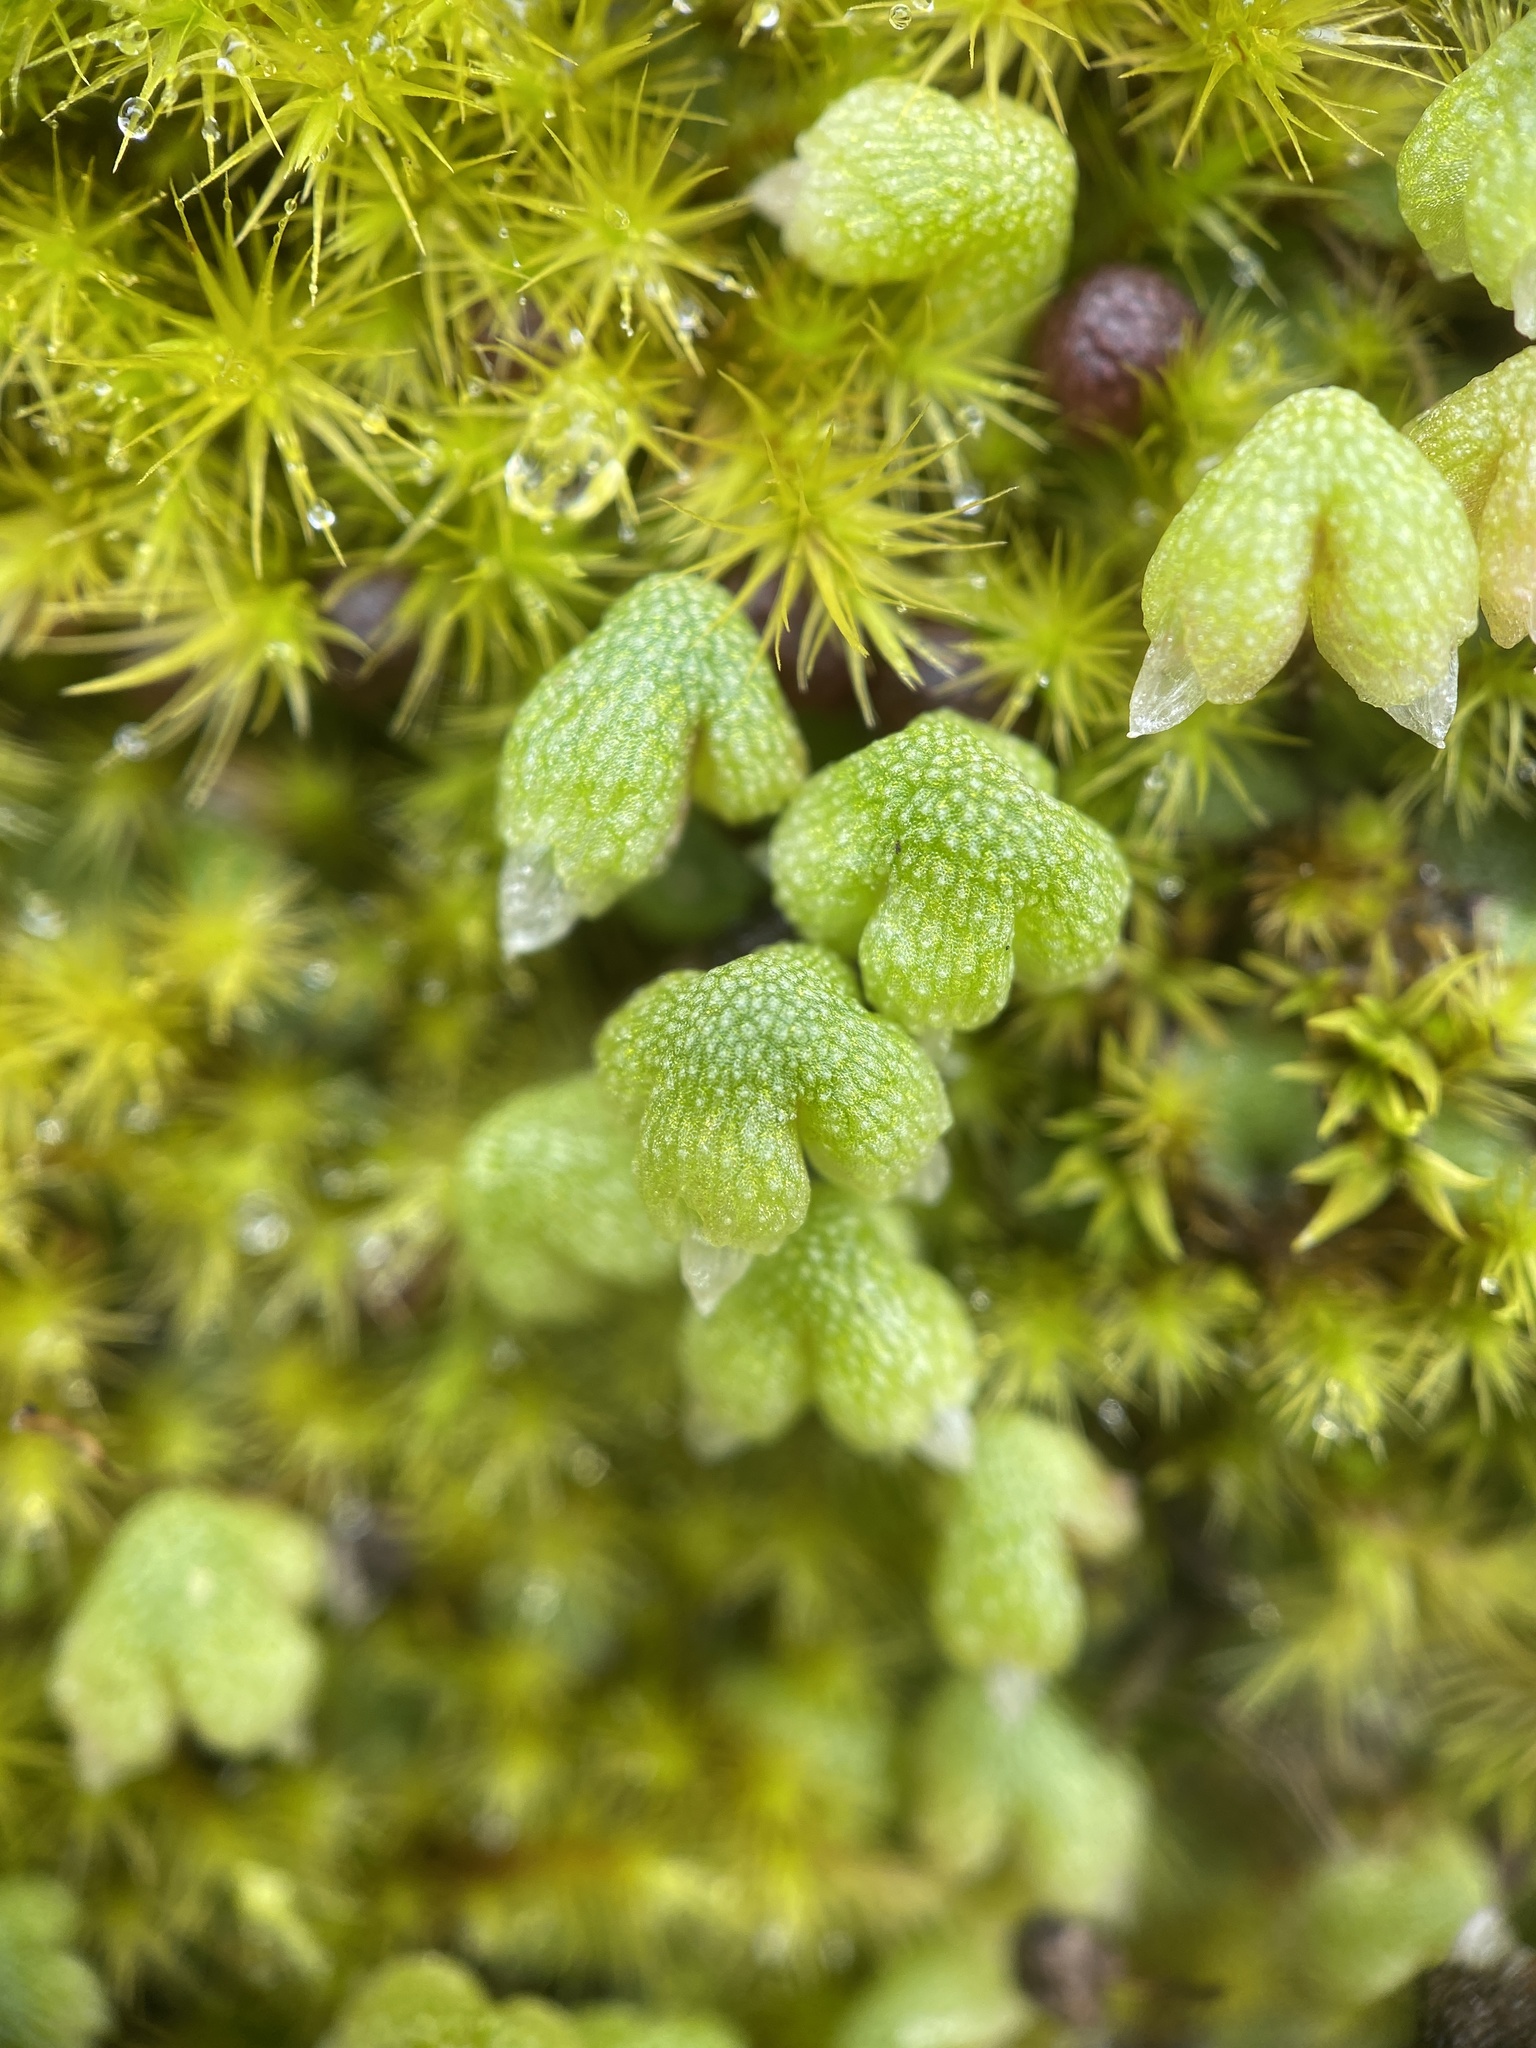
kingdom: Plantae
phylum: Marchantiophyta
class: Marchantiopsida
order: Marchantiales
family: Aytoniaceae
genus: Asterella
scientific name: Asterella californica
